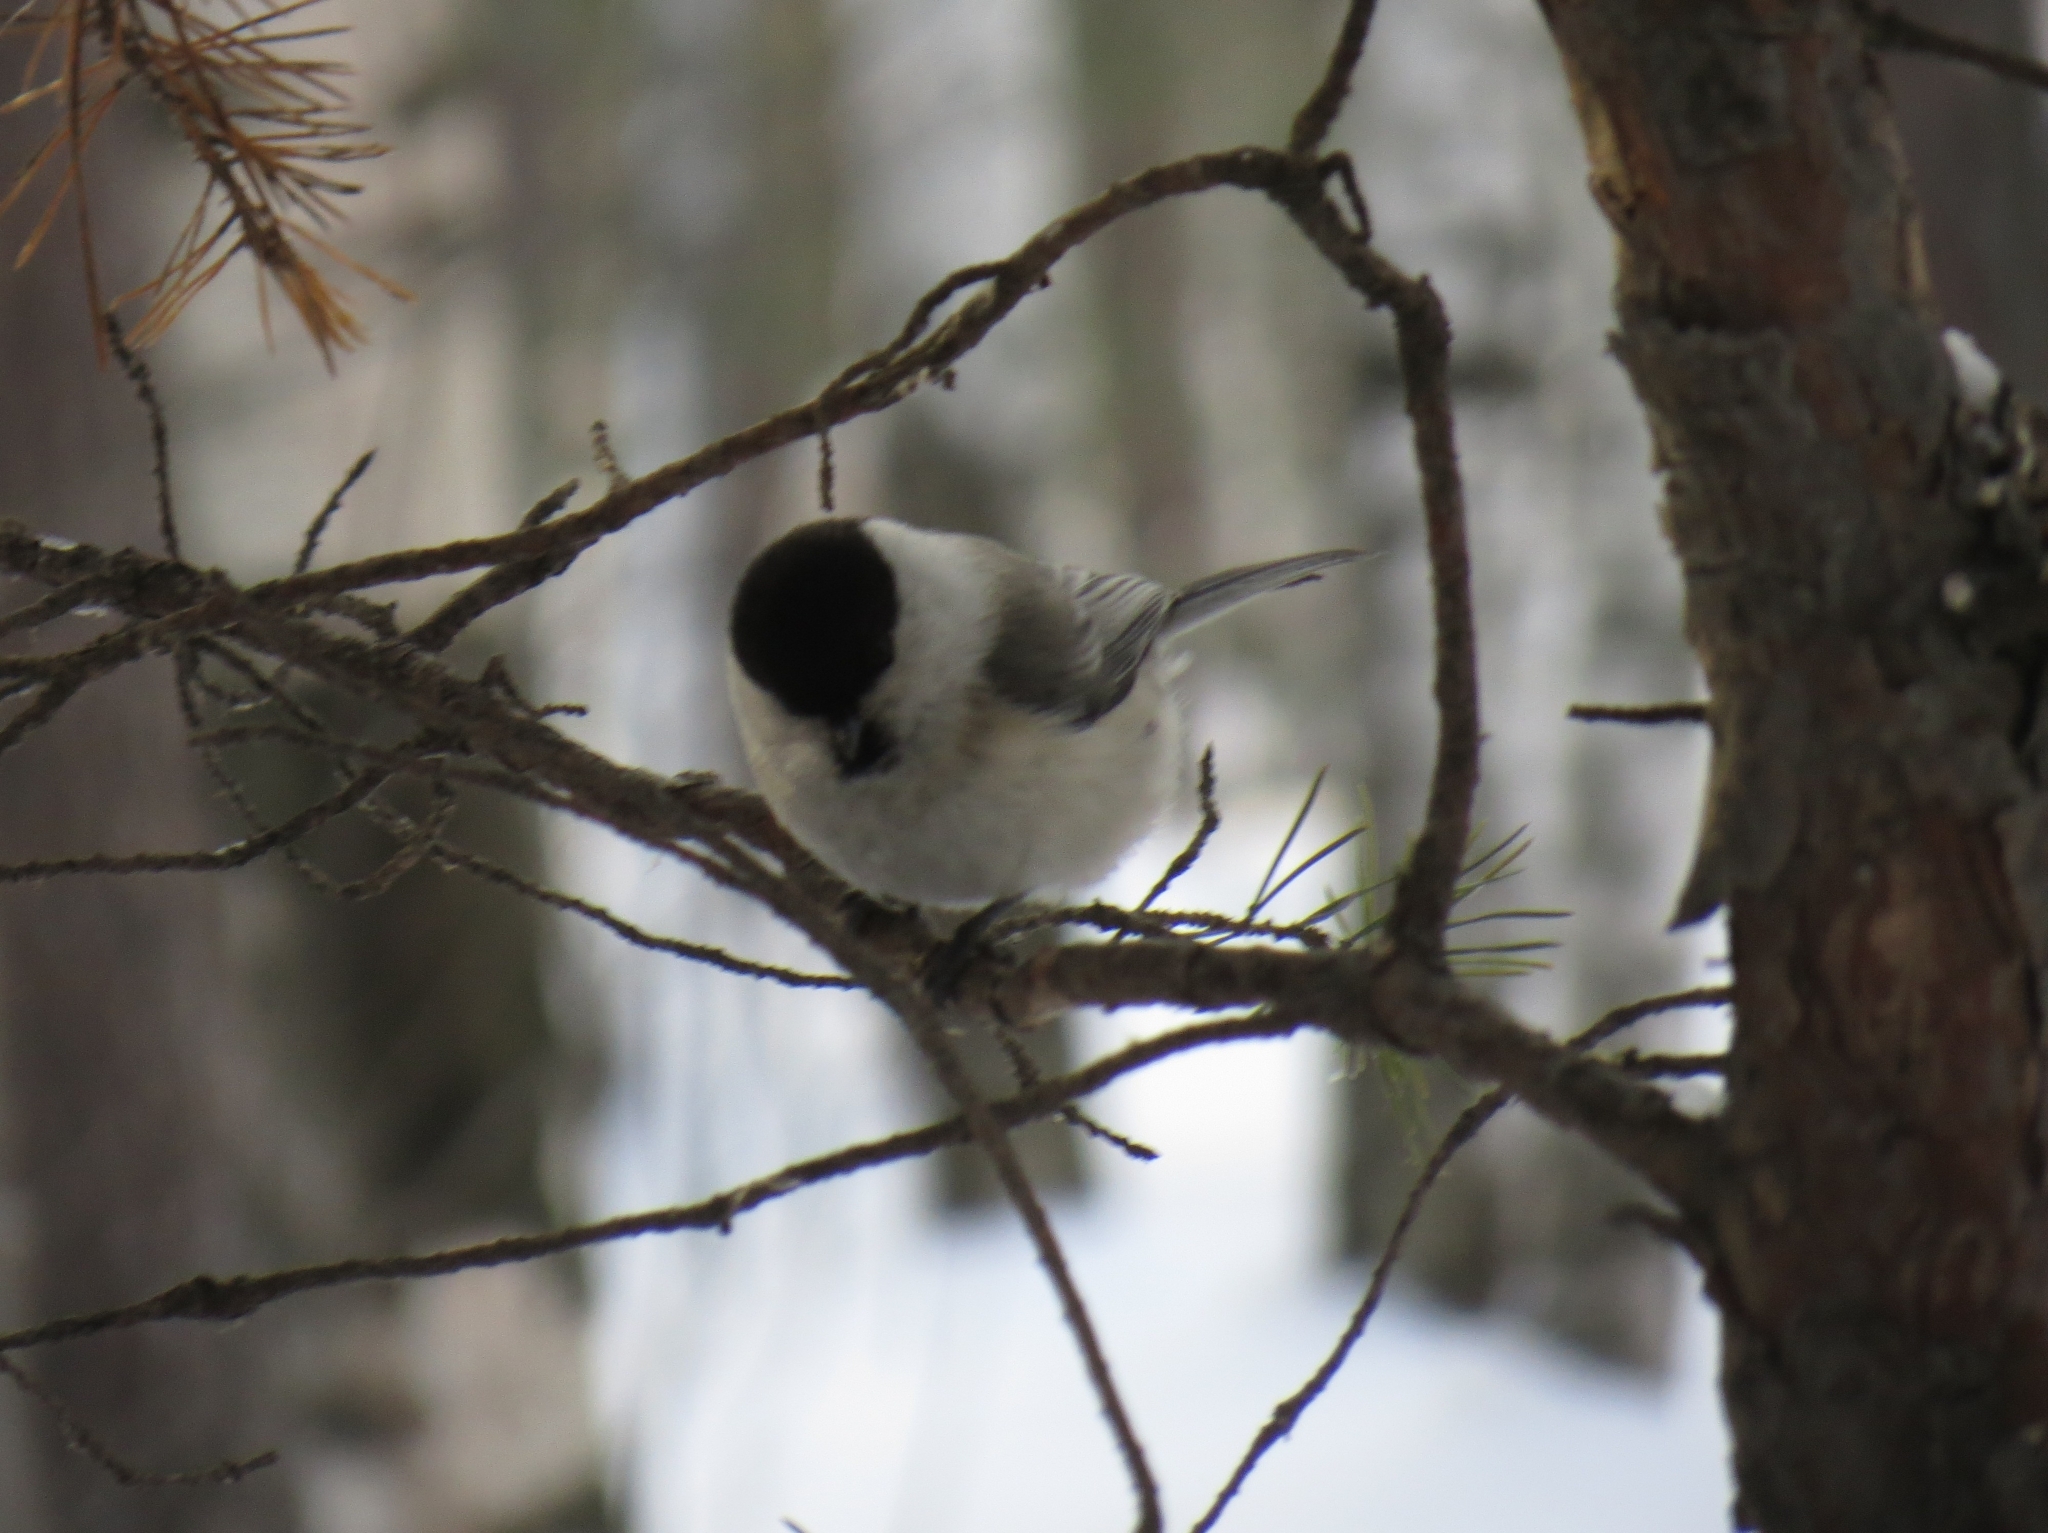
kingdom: Animalia
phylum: Chordata
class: Aves
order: Passeriformes
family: Paridae
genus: Poecile
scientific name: Poecile montanus
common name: Willow tit
